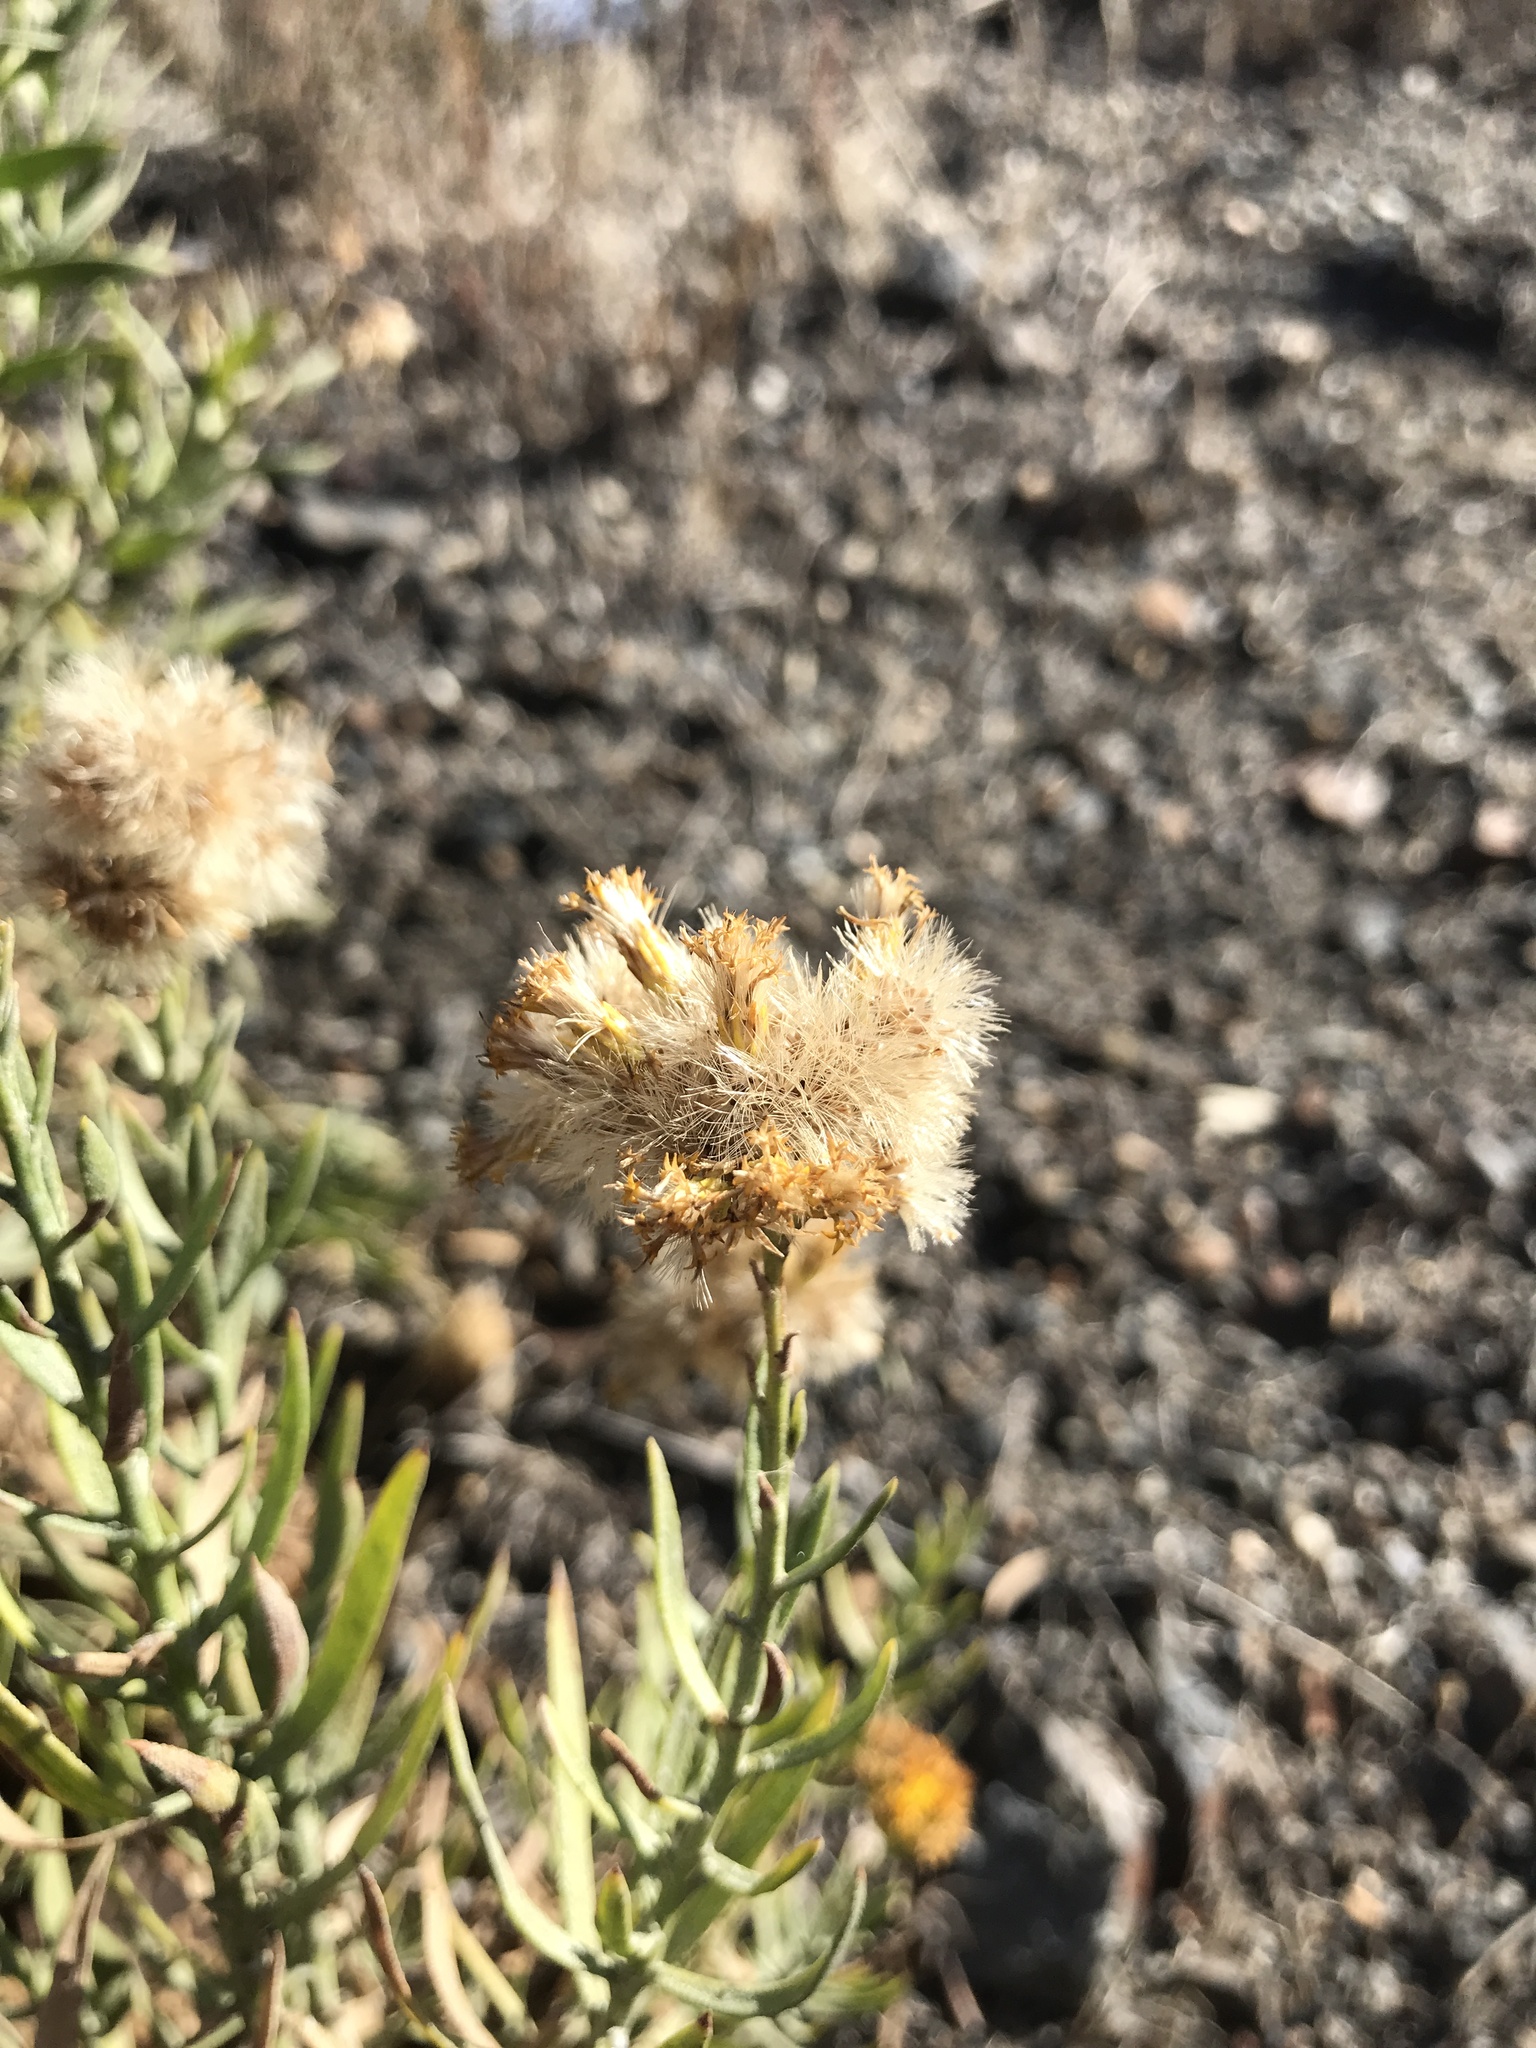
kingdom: Plantae
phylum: Tracheophyta
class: Magnoliopsida
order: Asterales
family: Asteraceae
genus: Ericameria
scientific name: Ericameria parishii
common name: Parish's goldenbush
